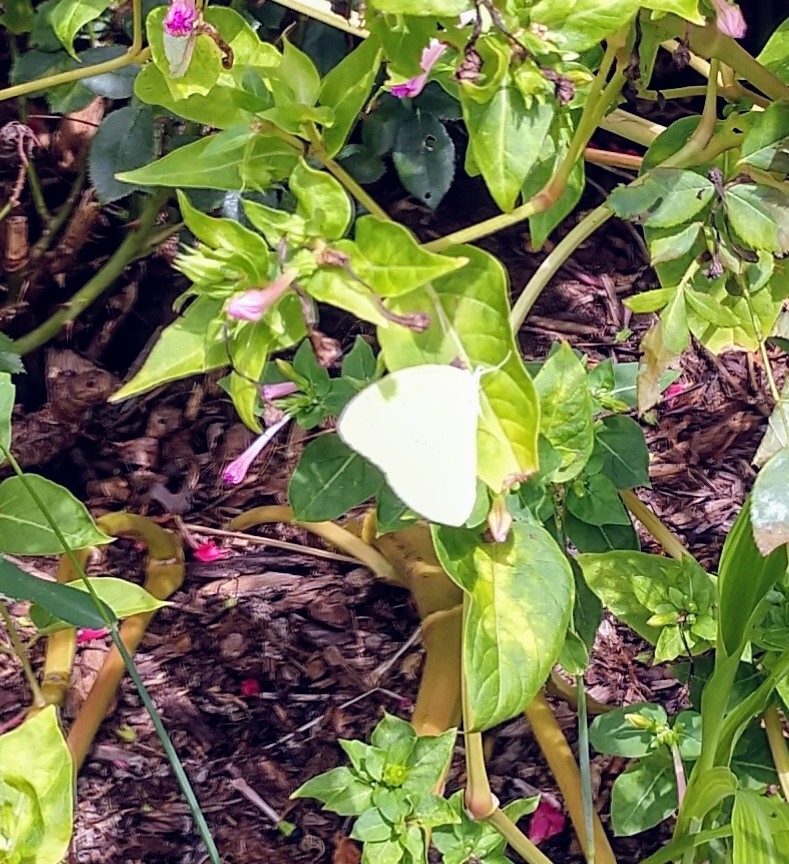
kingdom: Animalia
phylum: Arthropoda
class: Insecta
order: Lepidoptera
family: Pieridae
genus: Phoebis
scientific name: Phoebis sennae
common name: Cloudless sulphur
